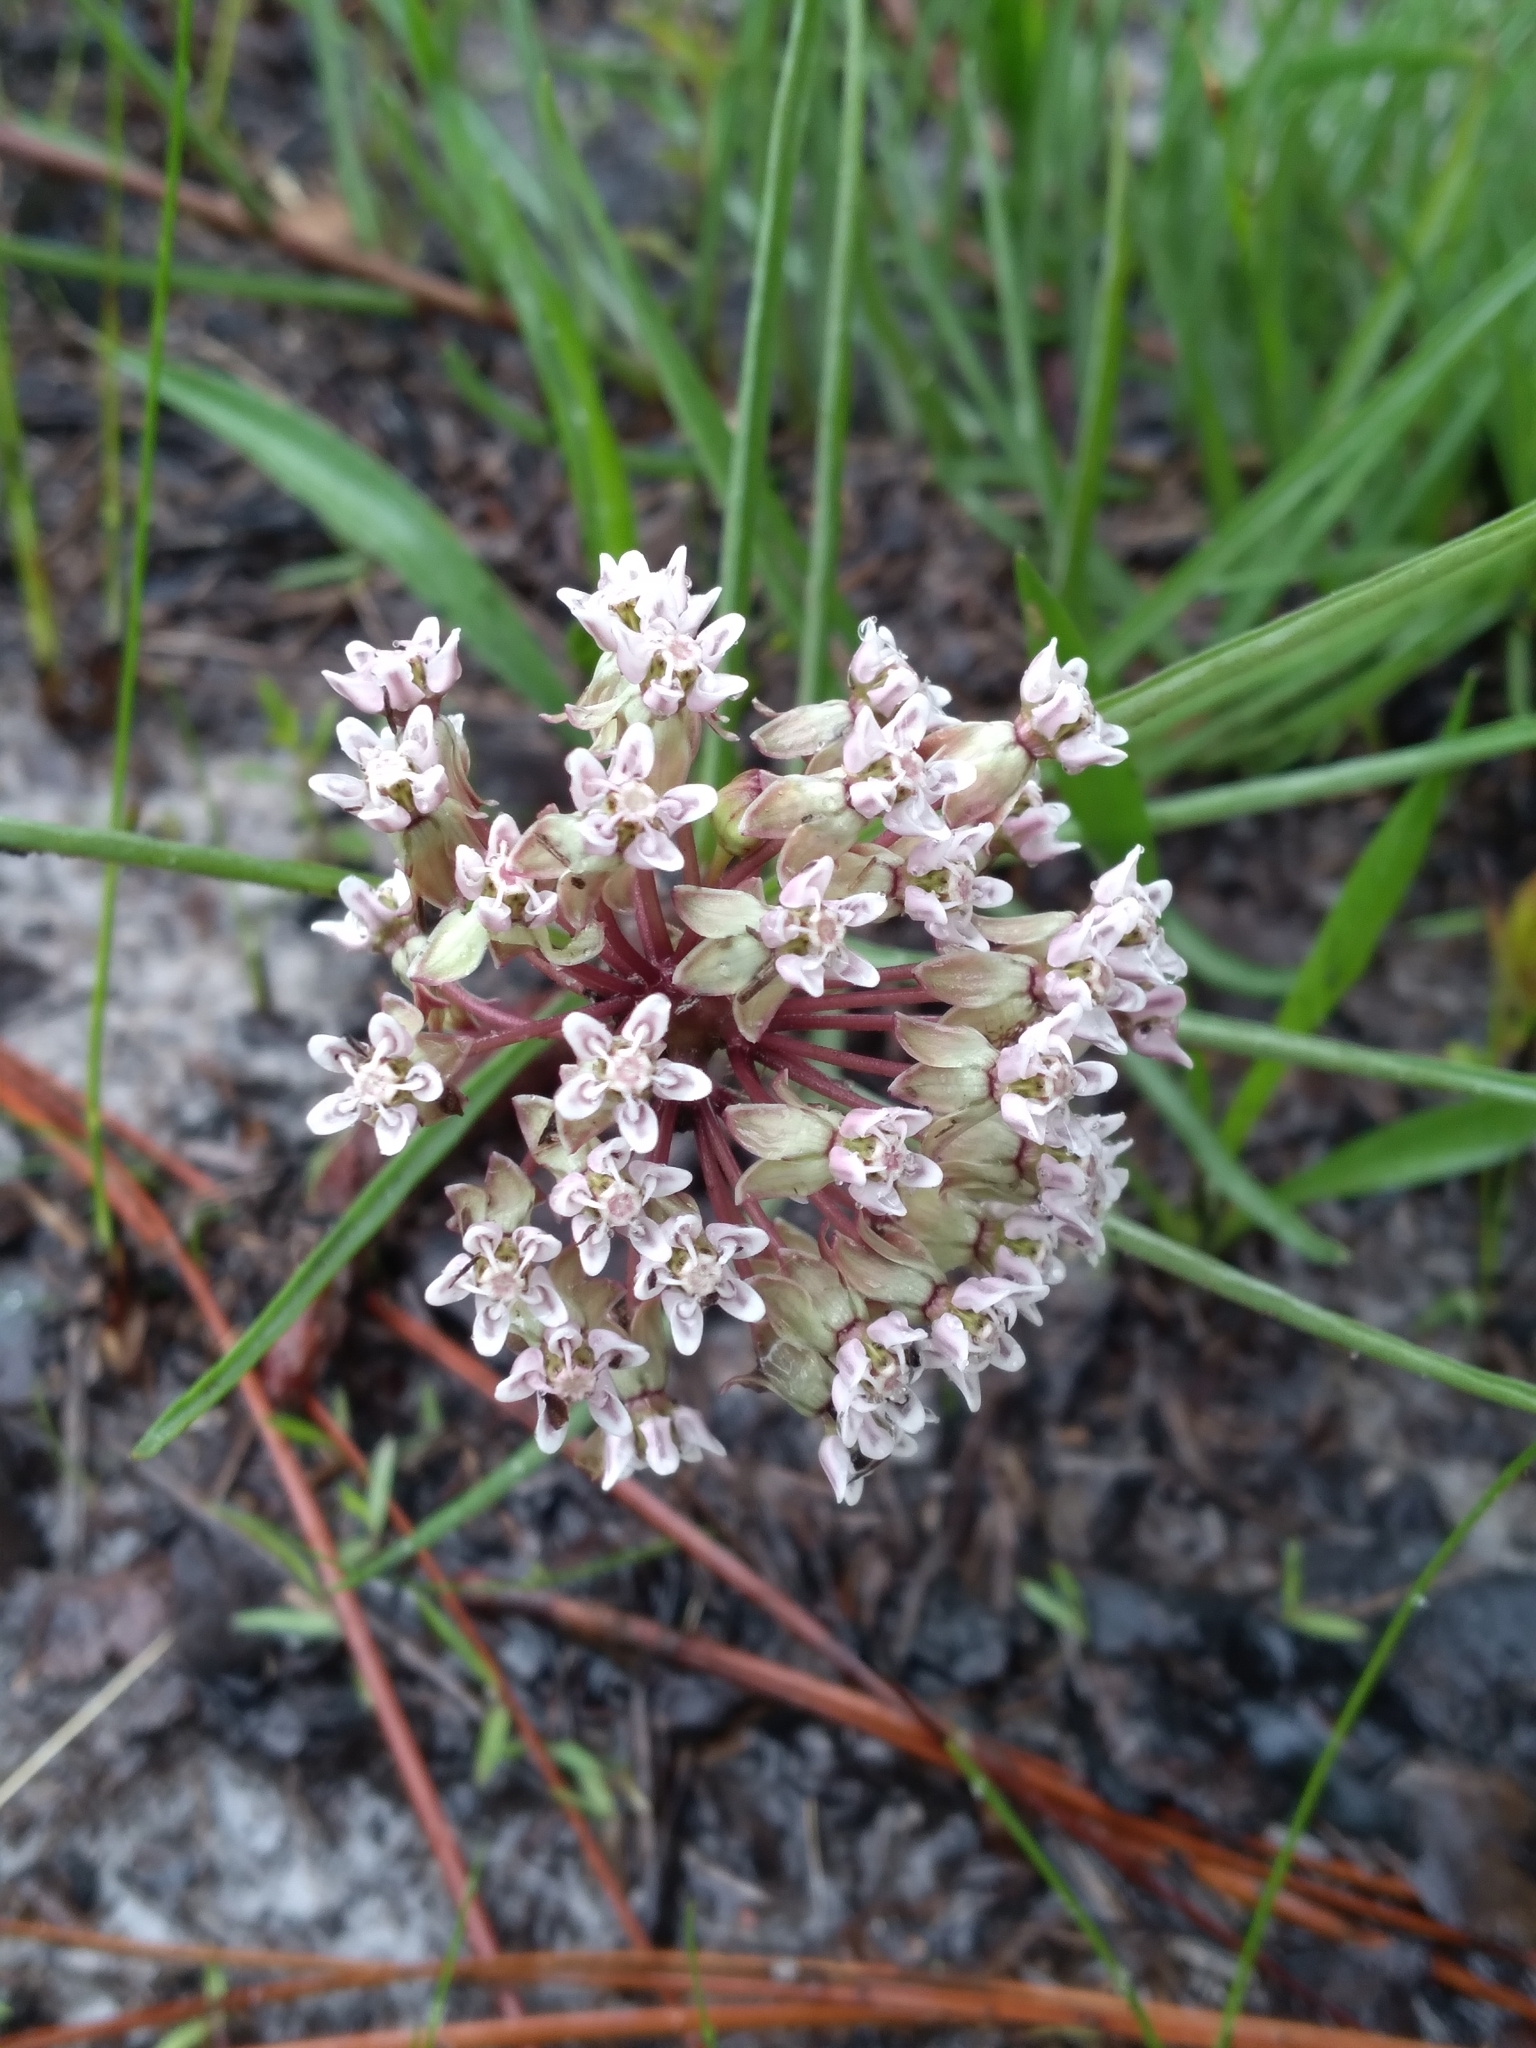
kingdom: Plantae
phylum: Tracheophyta
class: Magnoliopsida
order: Gentianales
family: Apocynaceae
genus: Asclepias
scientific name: Asclepias michauxii
